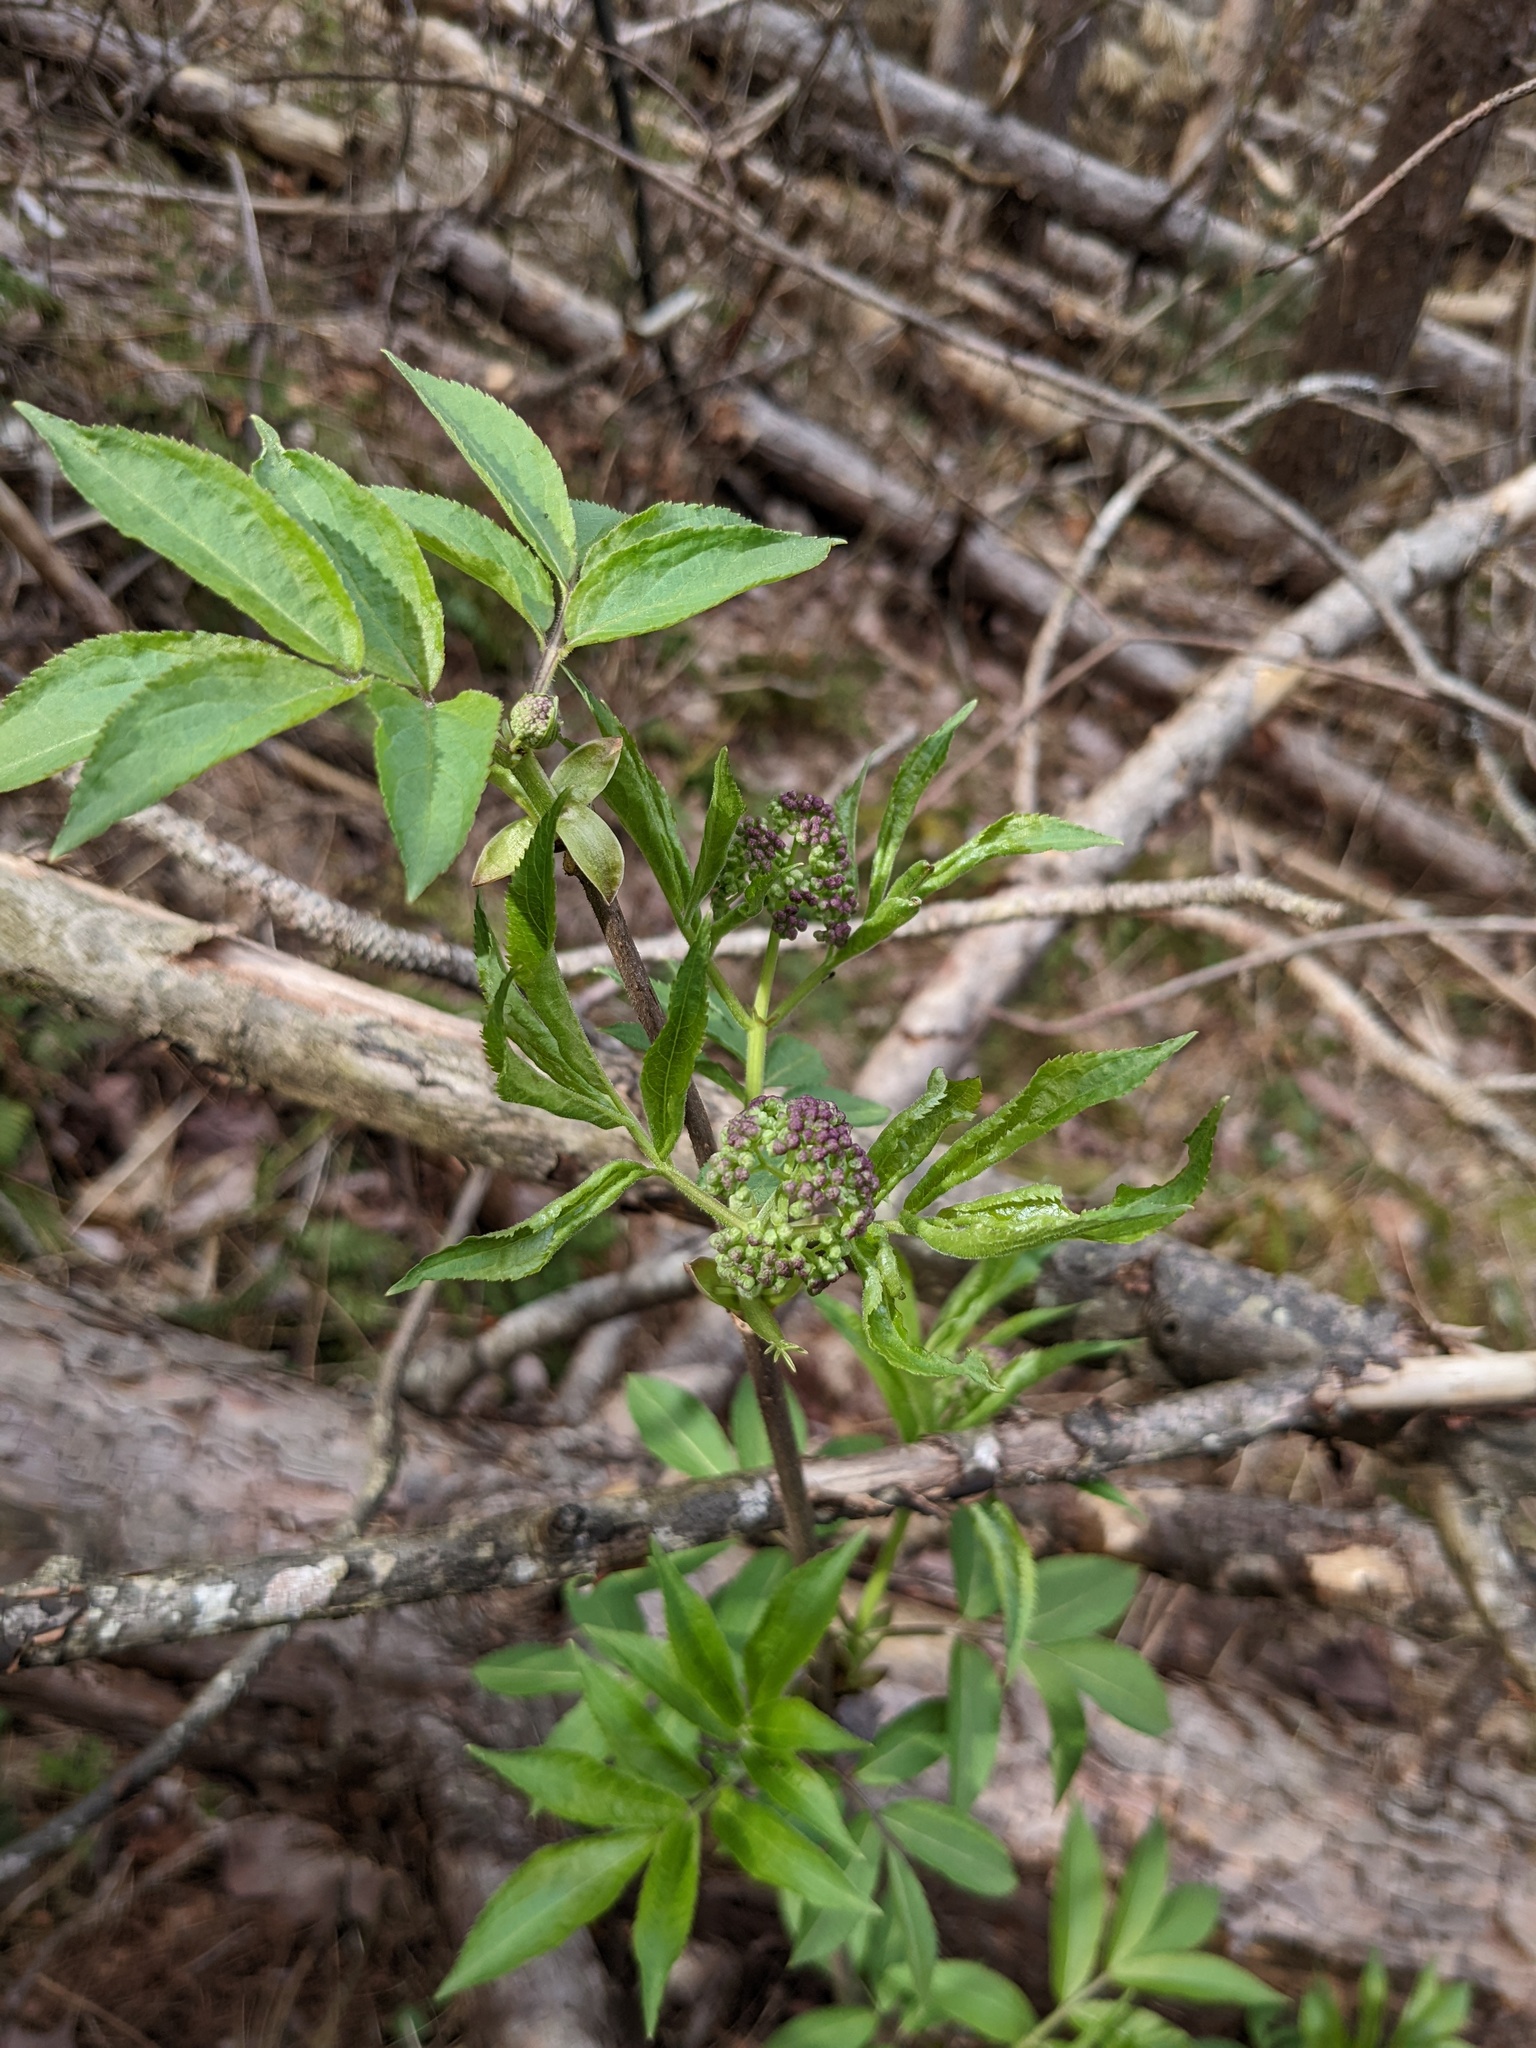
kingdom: Plantae
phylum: Tracheophyta
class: Magnoliopsida
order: Dipsacales
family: Viburnaceae
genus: Sambucus
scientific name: Sambucus racemosa
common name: Red-berried elder
